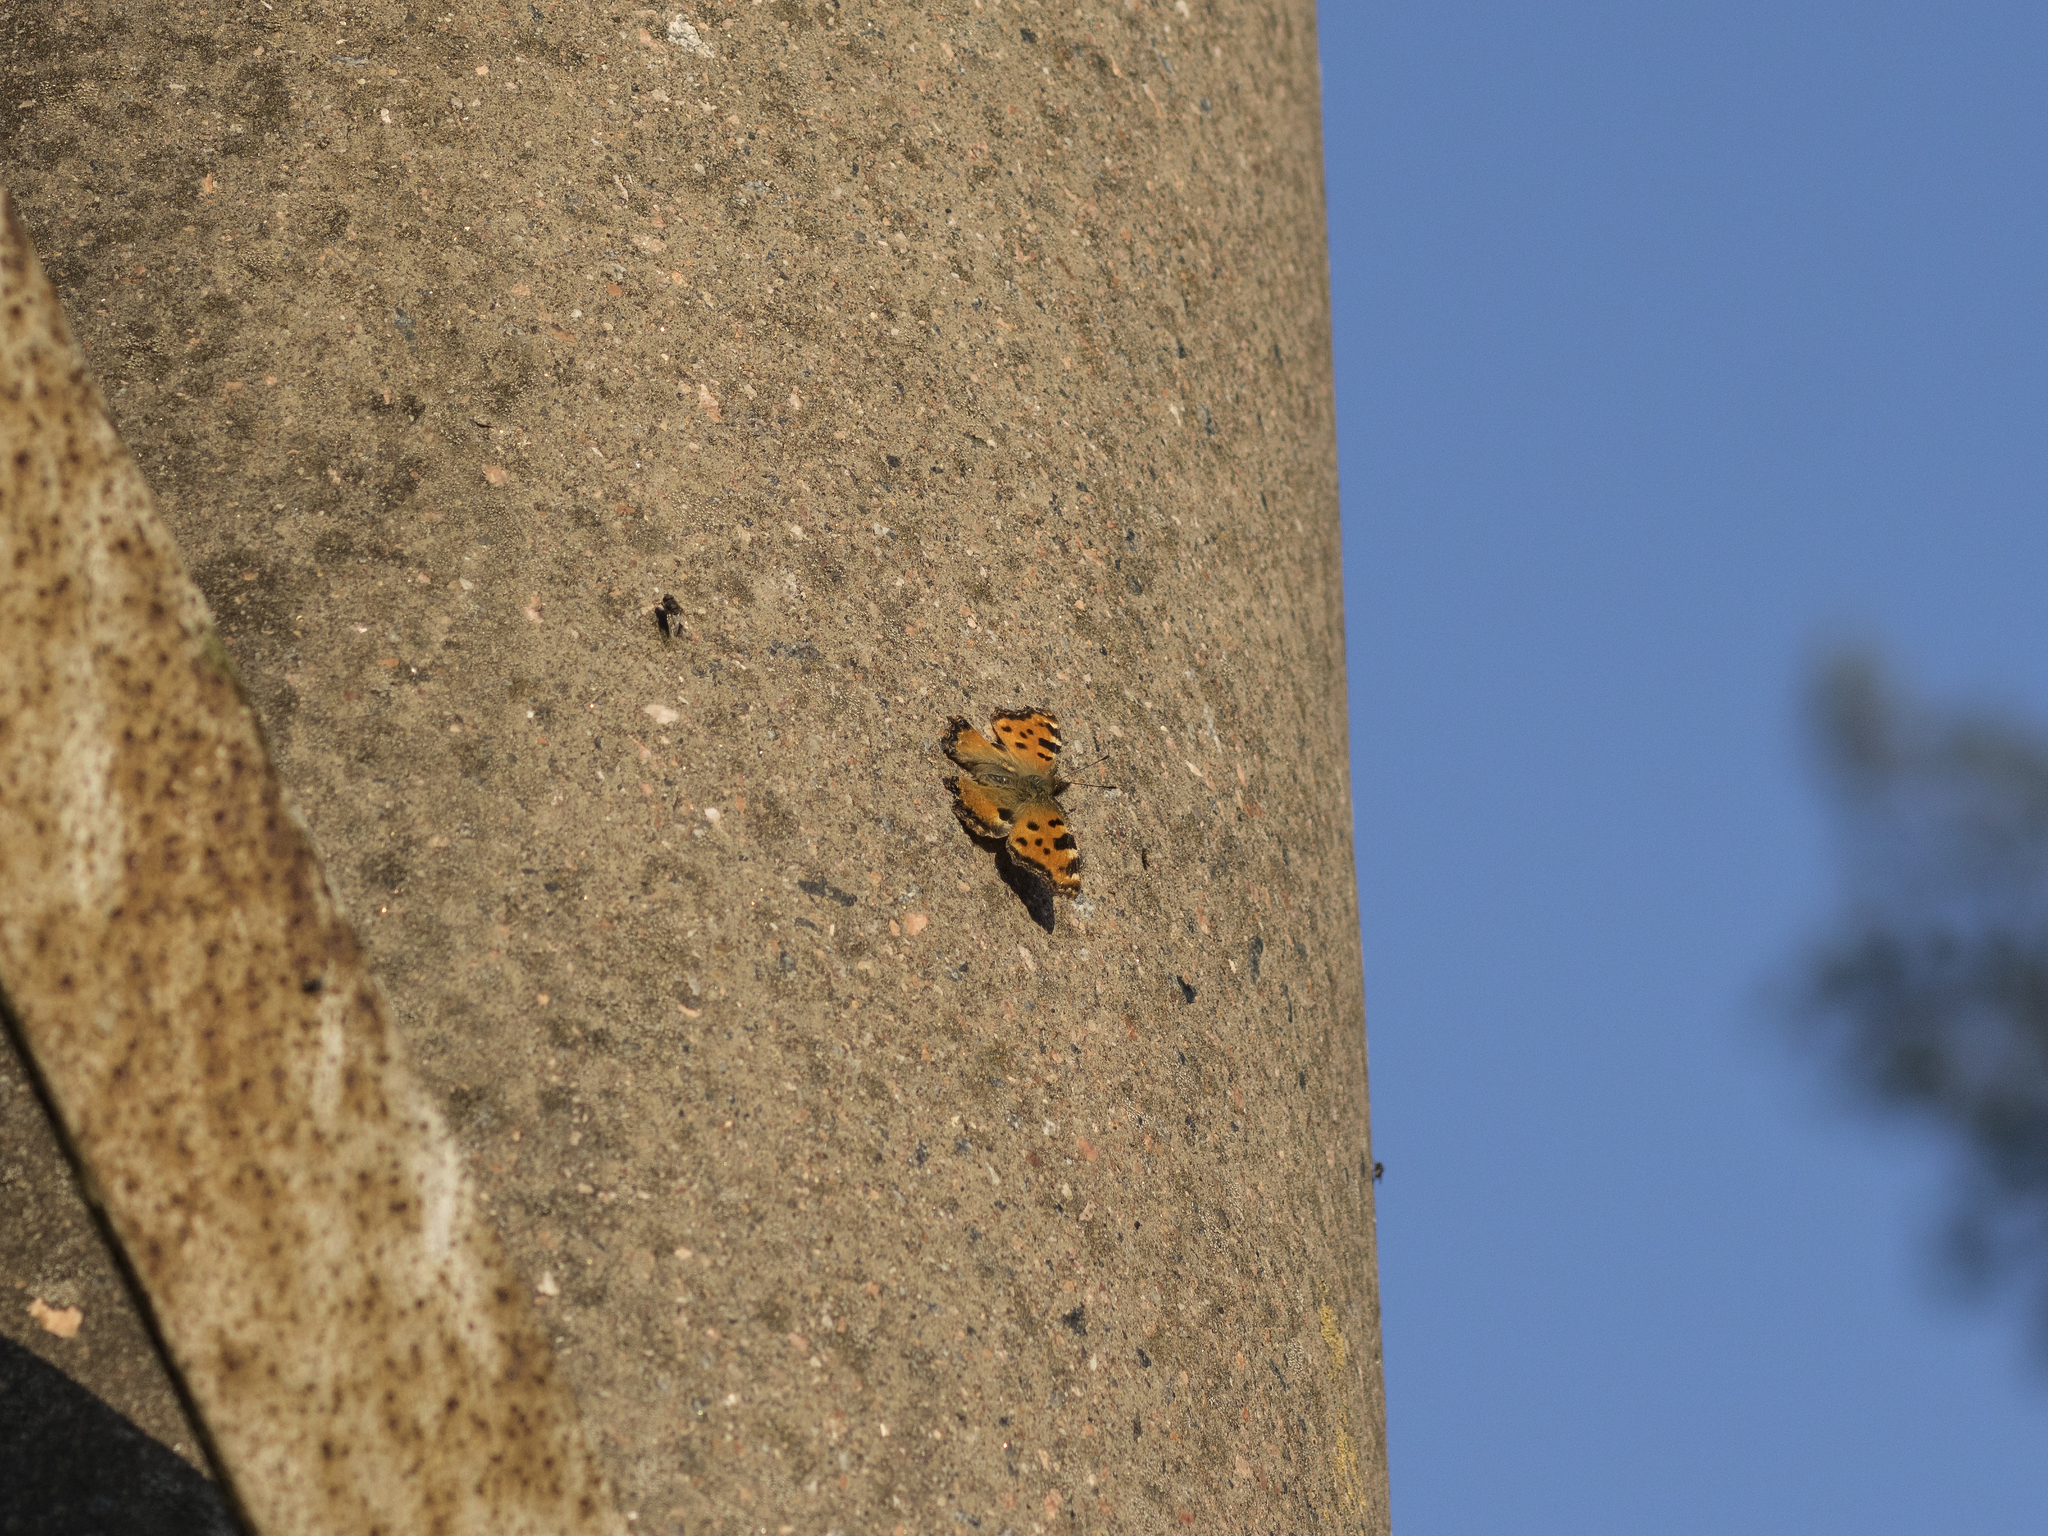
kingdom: Animalia
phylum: Arthropoda
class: Insecta
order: Lepidoptera
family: Nymphalidae
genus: Nymphalis
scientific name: Nymphalis polychloros
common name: Large tortoiseshell
